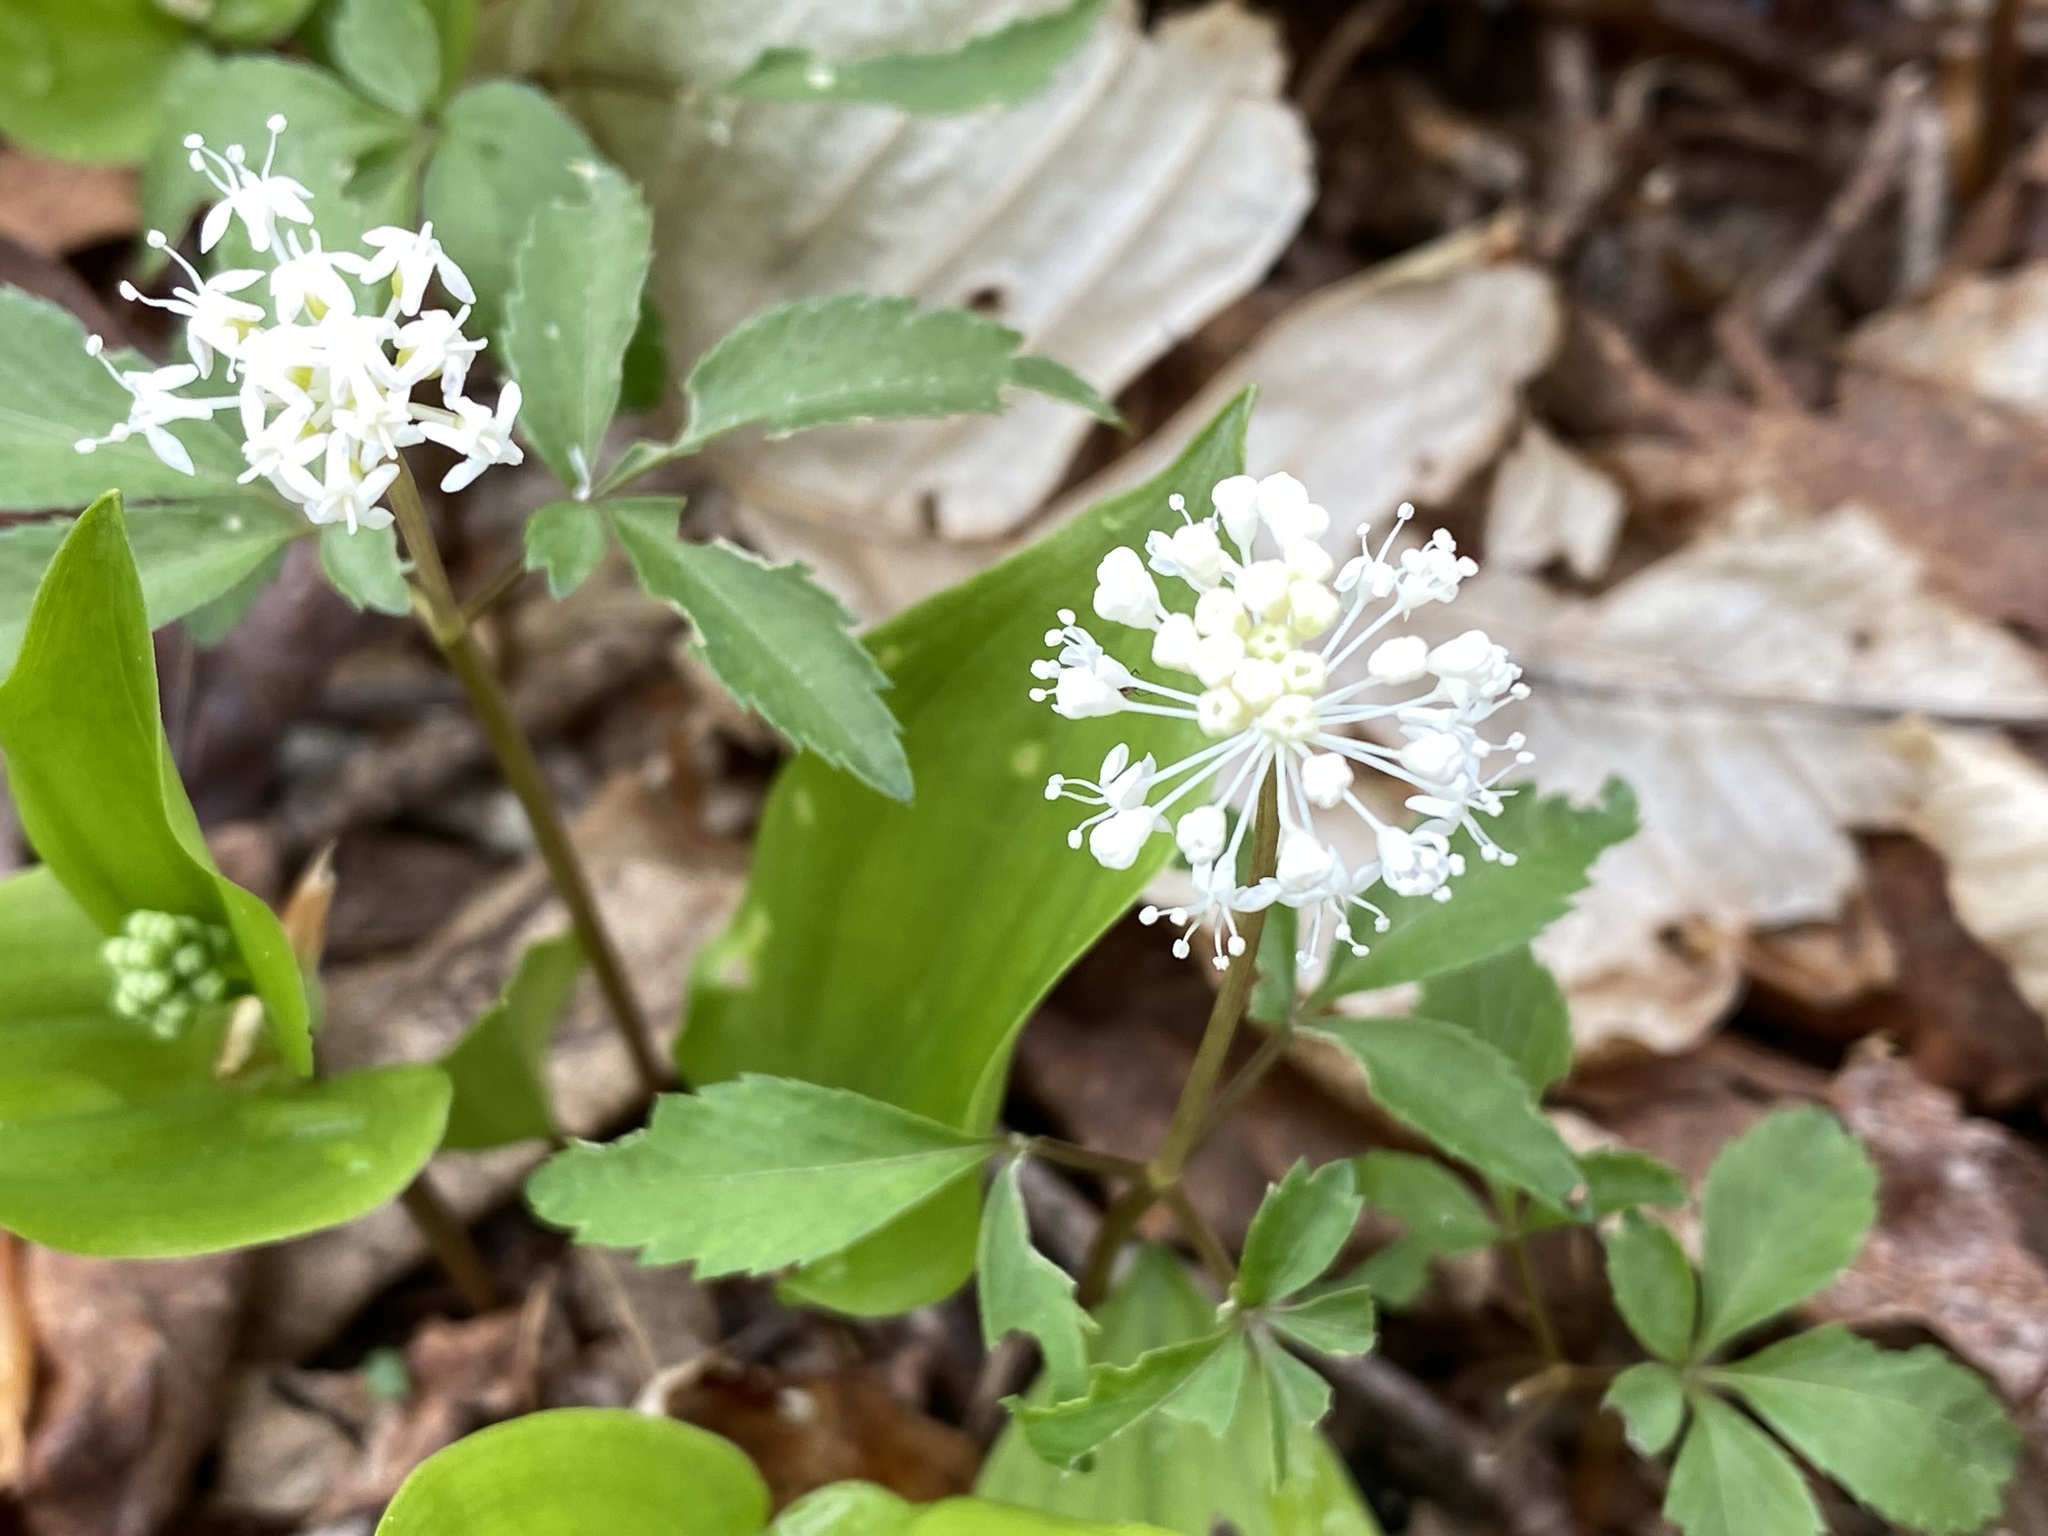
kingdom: Plantae
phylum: Tracheophyta
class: Magnoliopsida
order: Apiales
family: Araliaceae
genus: Panax
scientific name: Panax trifolius
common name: Dwarf ginseng
